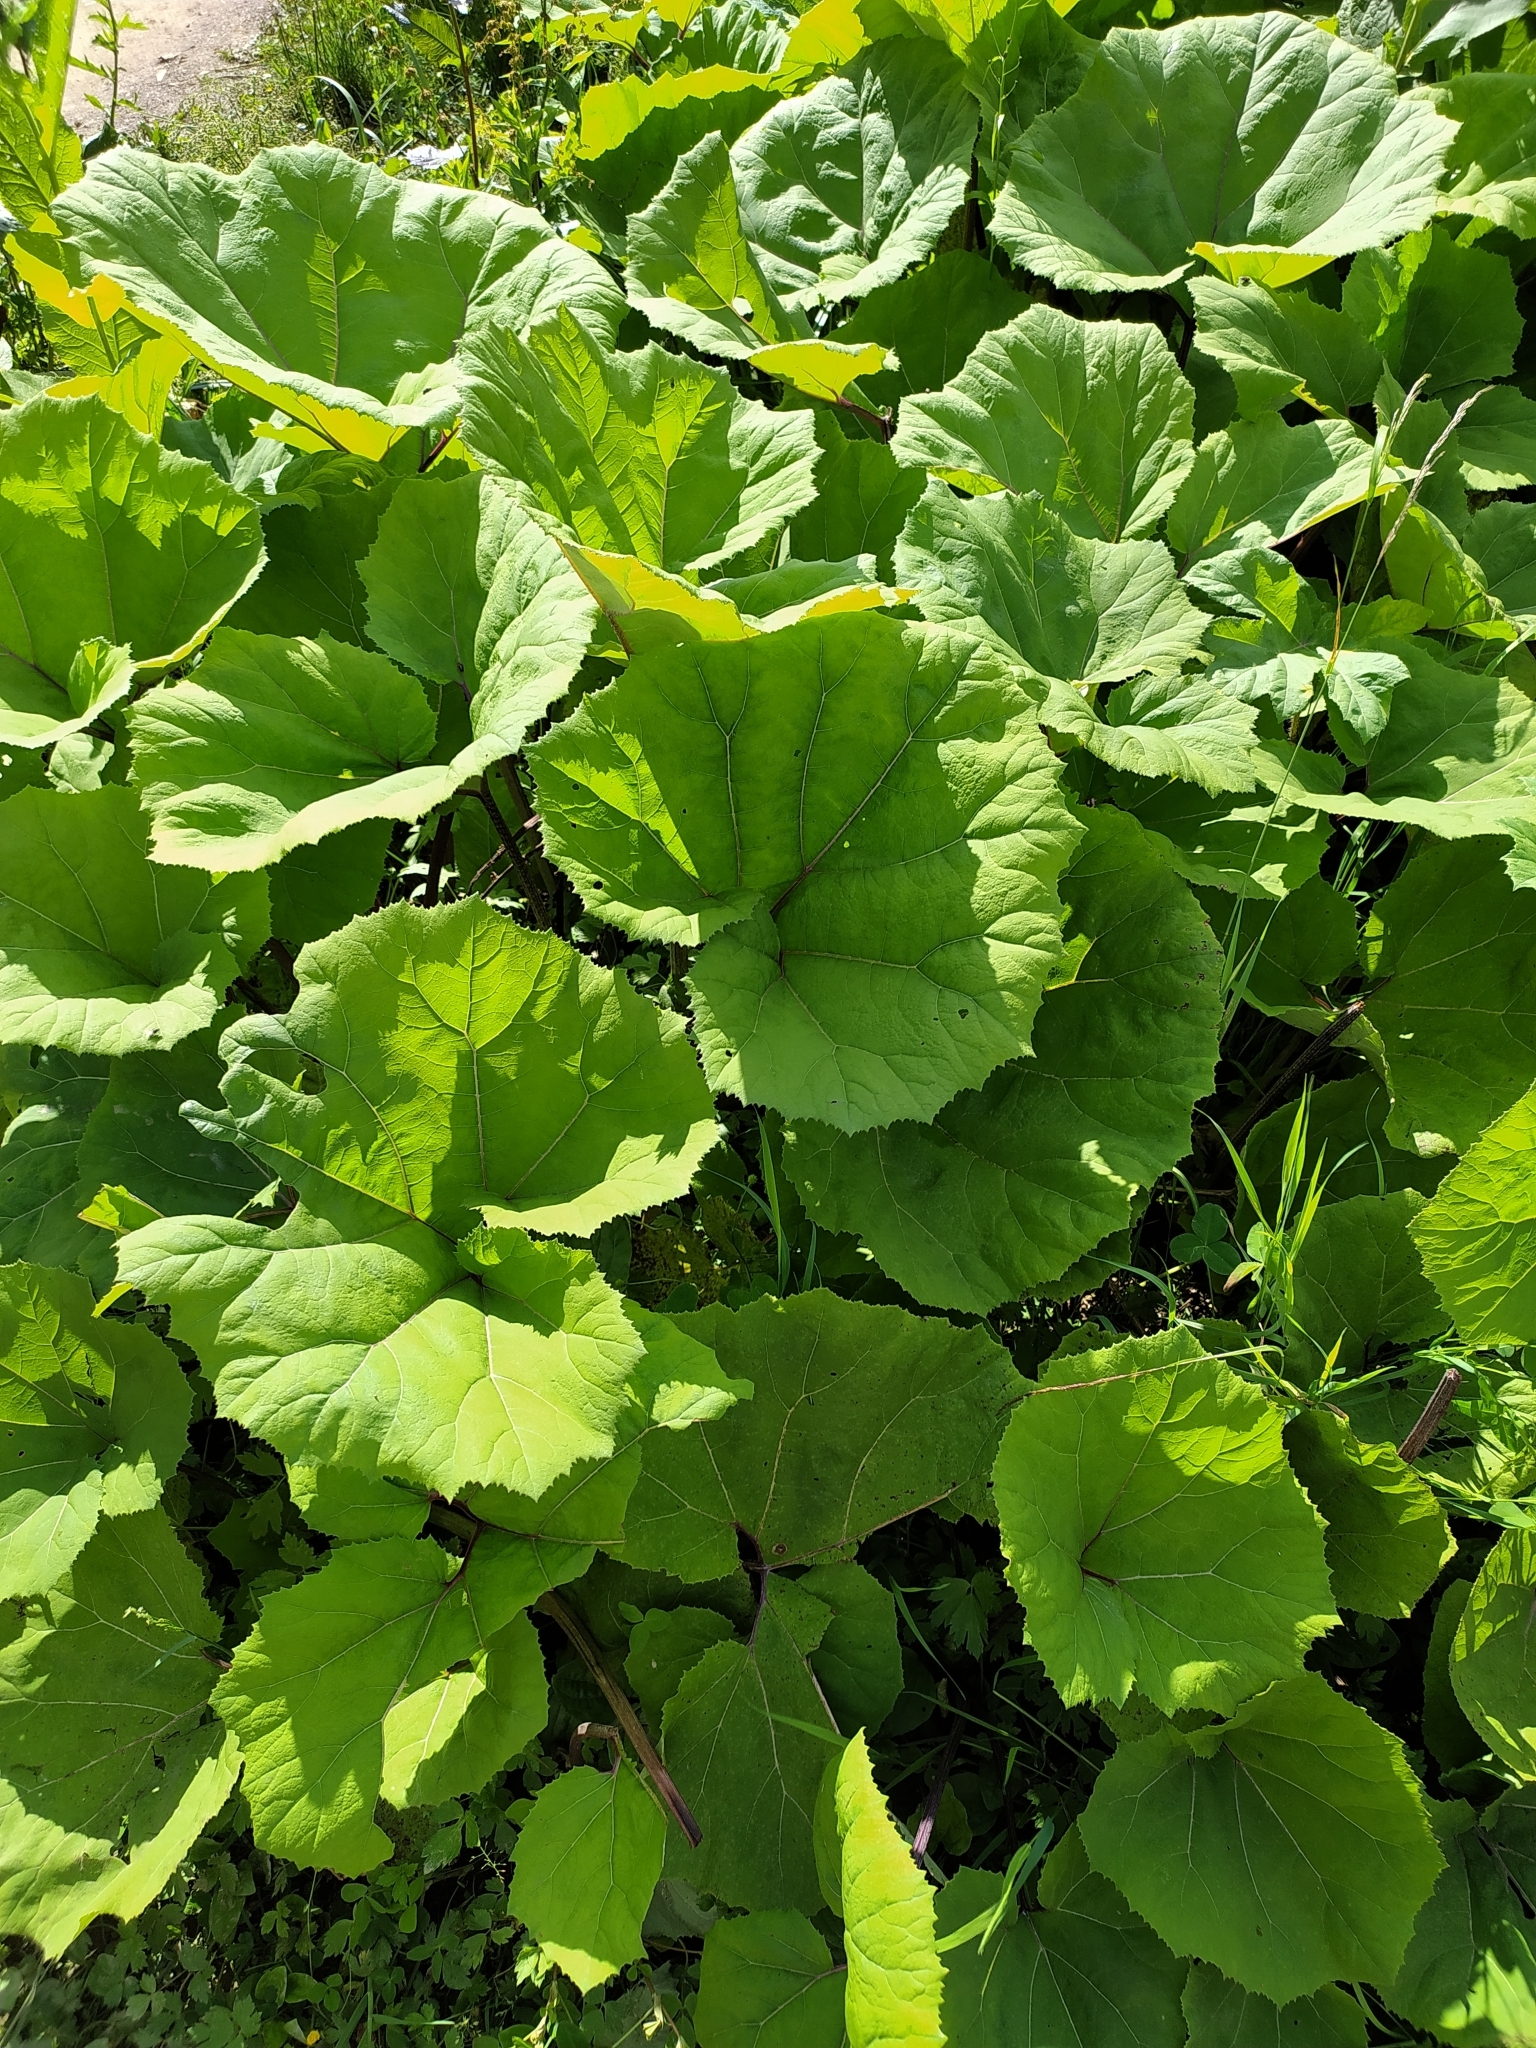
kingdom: Plantae
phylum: Tracheophyta
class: Magnoliopsida
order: Asterales
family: Asteraceae
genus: Petasites
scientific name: Petasites hybridus
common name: Butterbur
